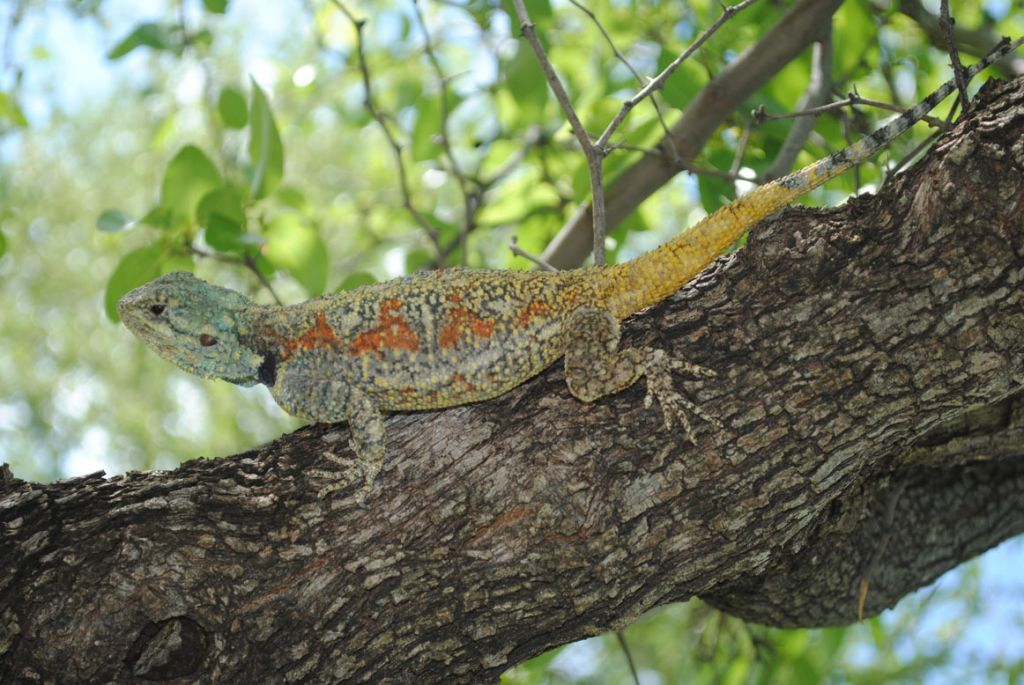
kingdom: Animalia
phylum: Chordata
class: Squamata
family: Agamidae
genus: Acanthocercus
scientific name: Acanthocercus atricollis
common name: Southern tree agama
